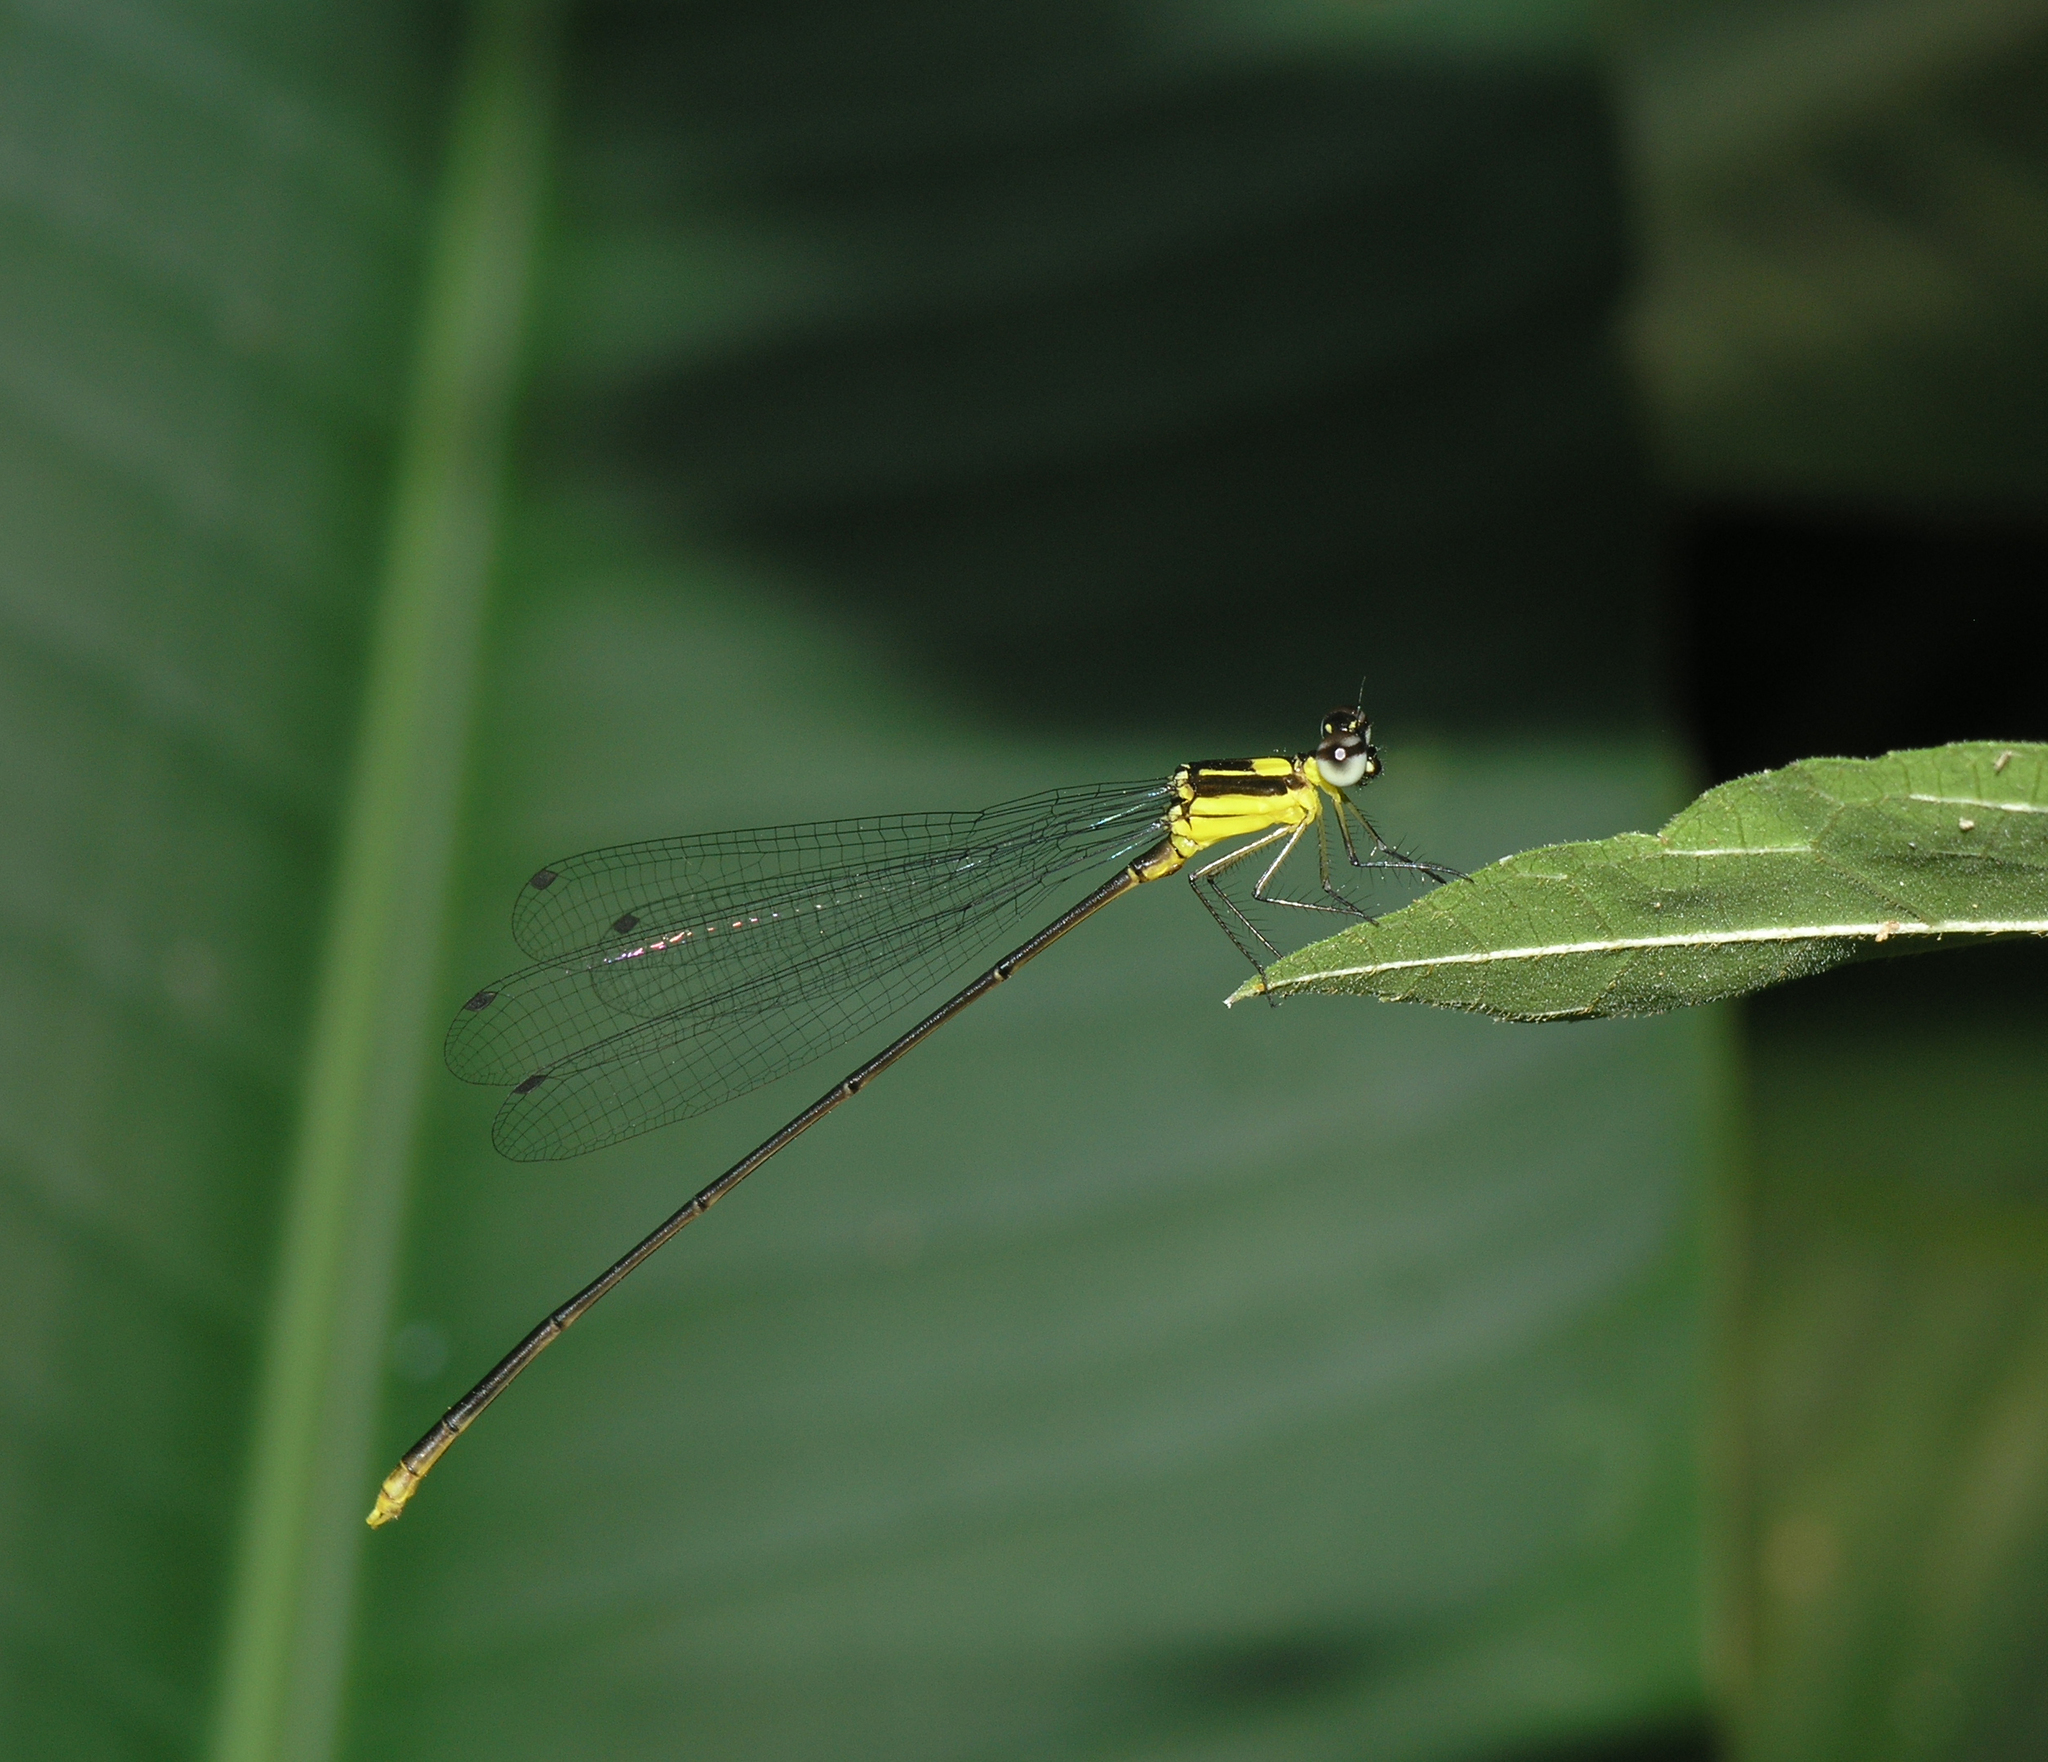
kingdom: Animalia
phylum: Arthropoda
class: Insecta
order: Odonata
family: Platycnemididae
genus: Coeliccia
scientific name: Coeliccia yamasakii
